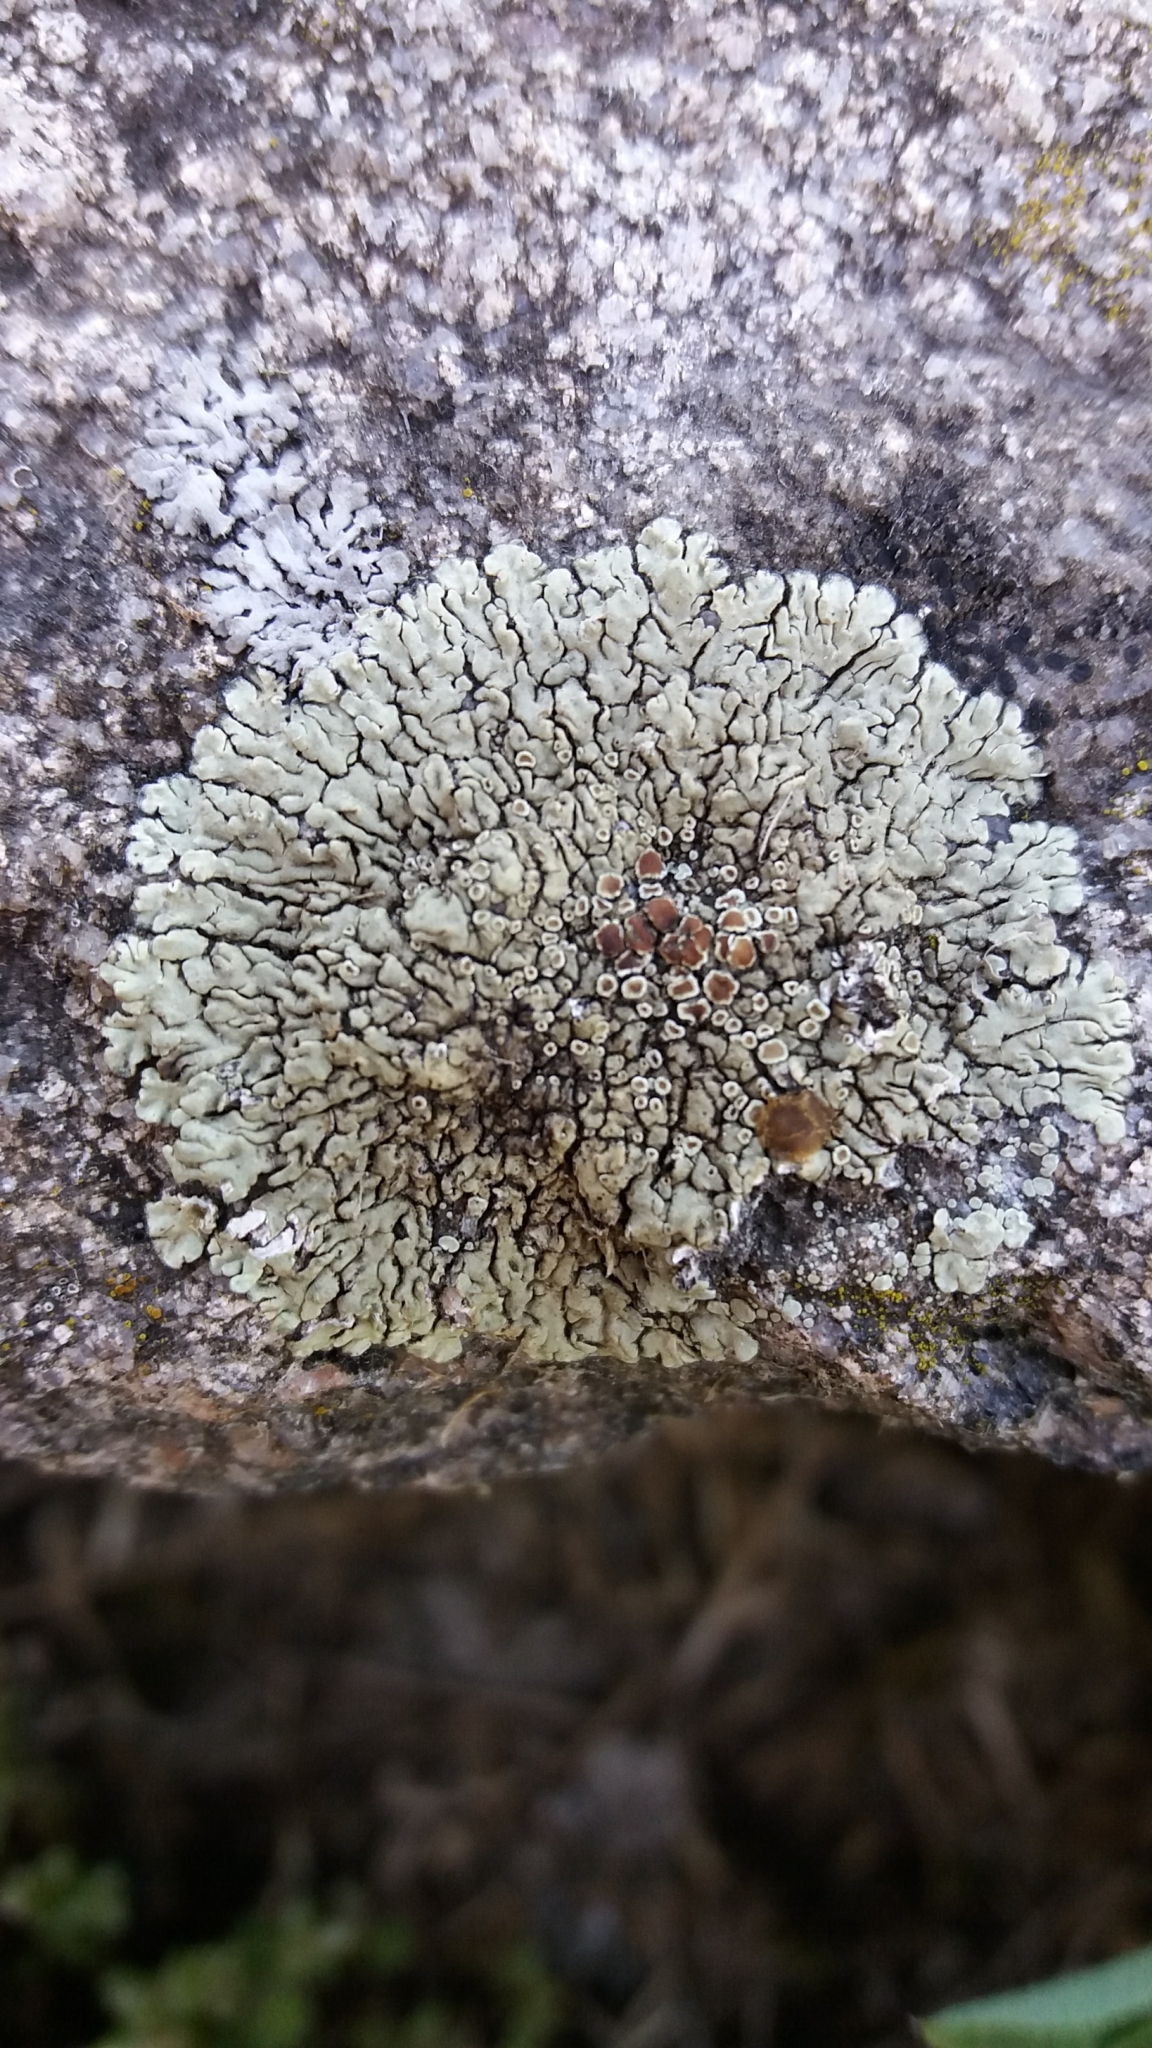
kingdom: Fungi
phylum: Ascomycota
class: Lecanoromycetes
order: Lecanorales
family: Lecanoraceae
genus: Protoparmeliopsis
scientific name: Protoparmeliopsis muralis
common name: Stonewall rim lichen
